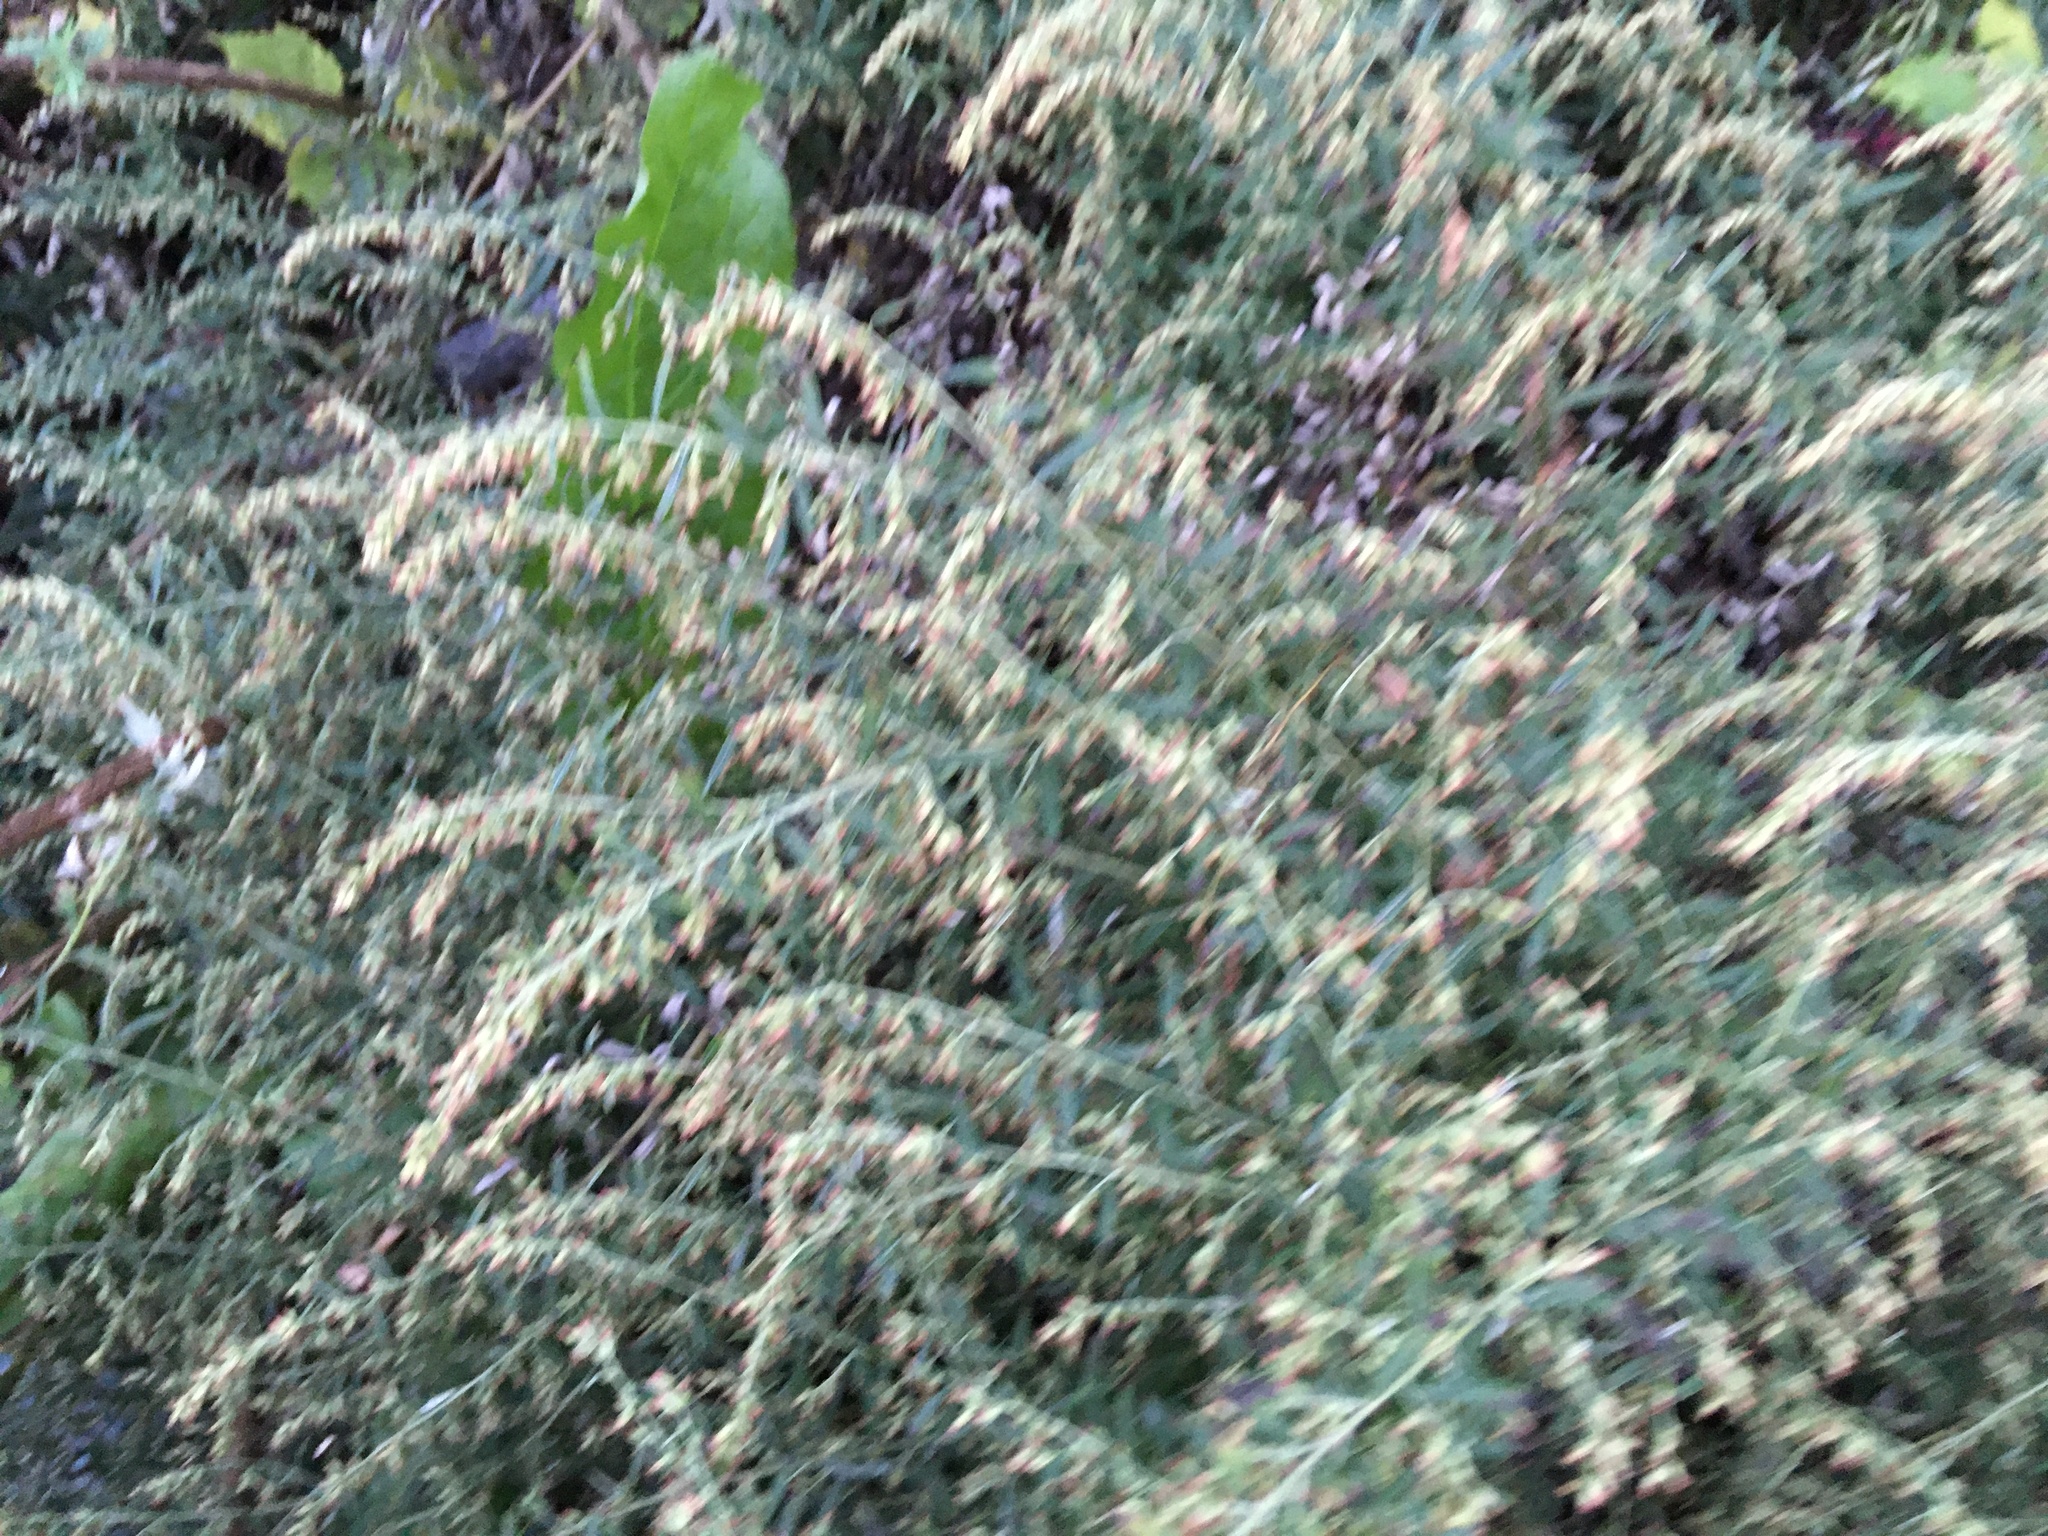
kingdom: Plantae
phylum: Tracheophyta
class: Magnoliopsida
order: Asterales
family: Asteraceae
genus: Artemisia
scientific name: Artemisia vulgaris
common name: Mugwort
